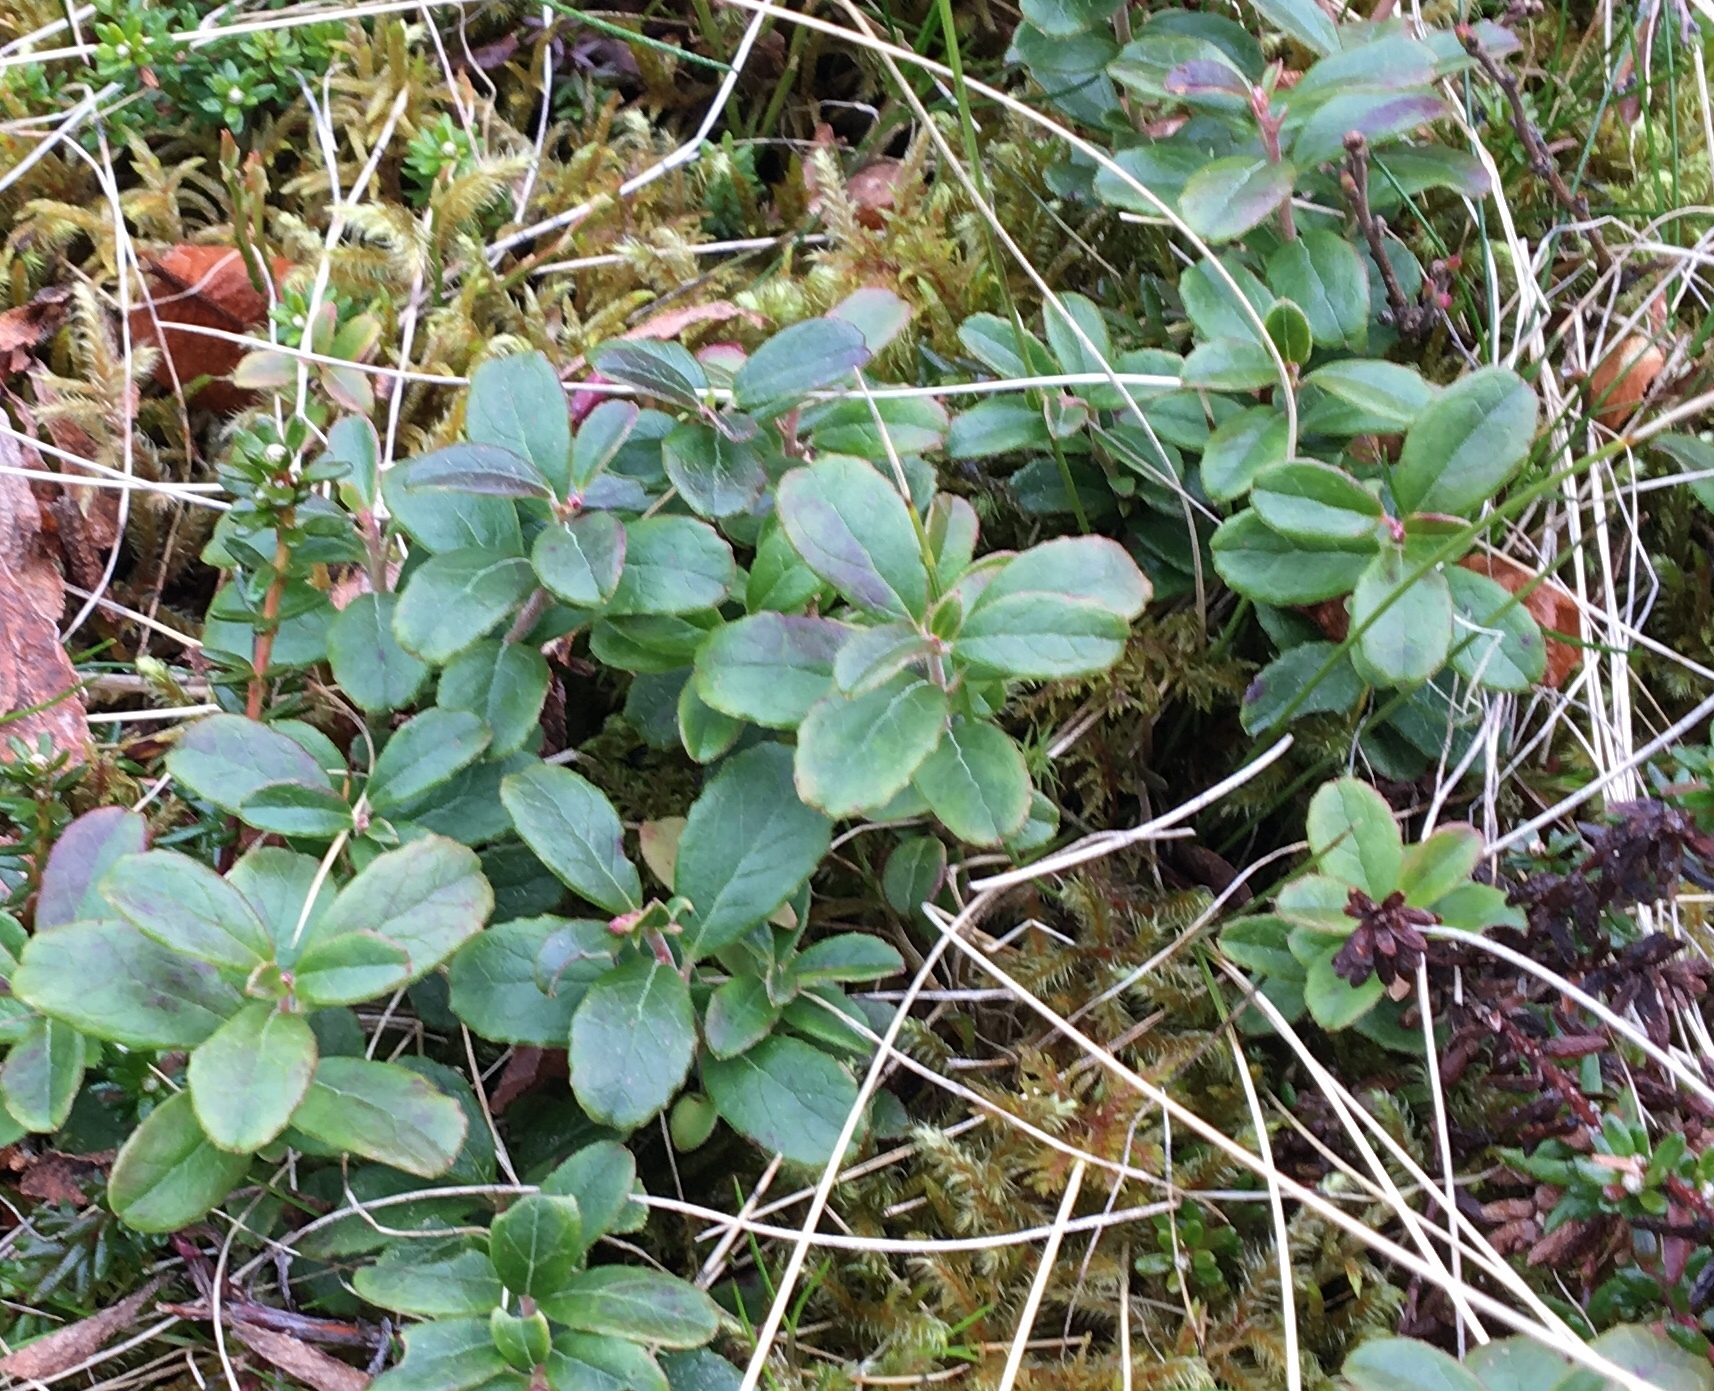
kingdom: Plantae
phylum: Tracheophyta
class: Magnoliopsida
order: Ericales
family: Ericaceae
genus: Vaccinium
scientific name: Vaccinium vitis-idaea
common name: Cowberry
